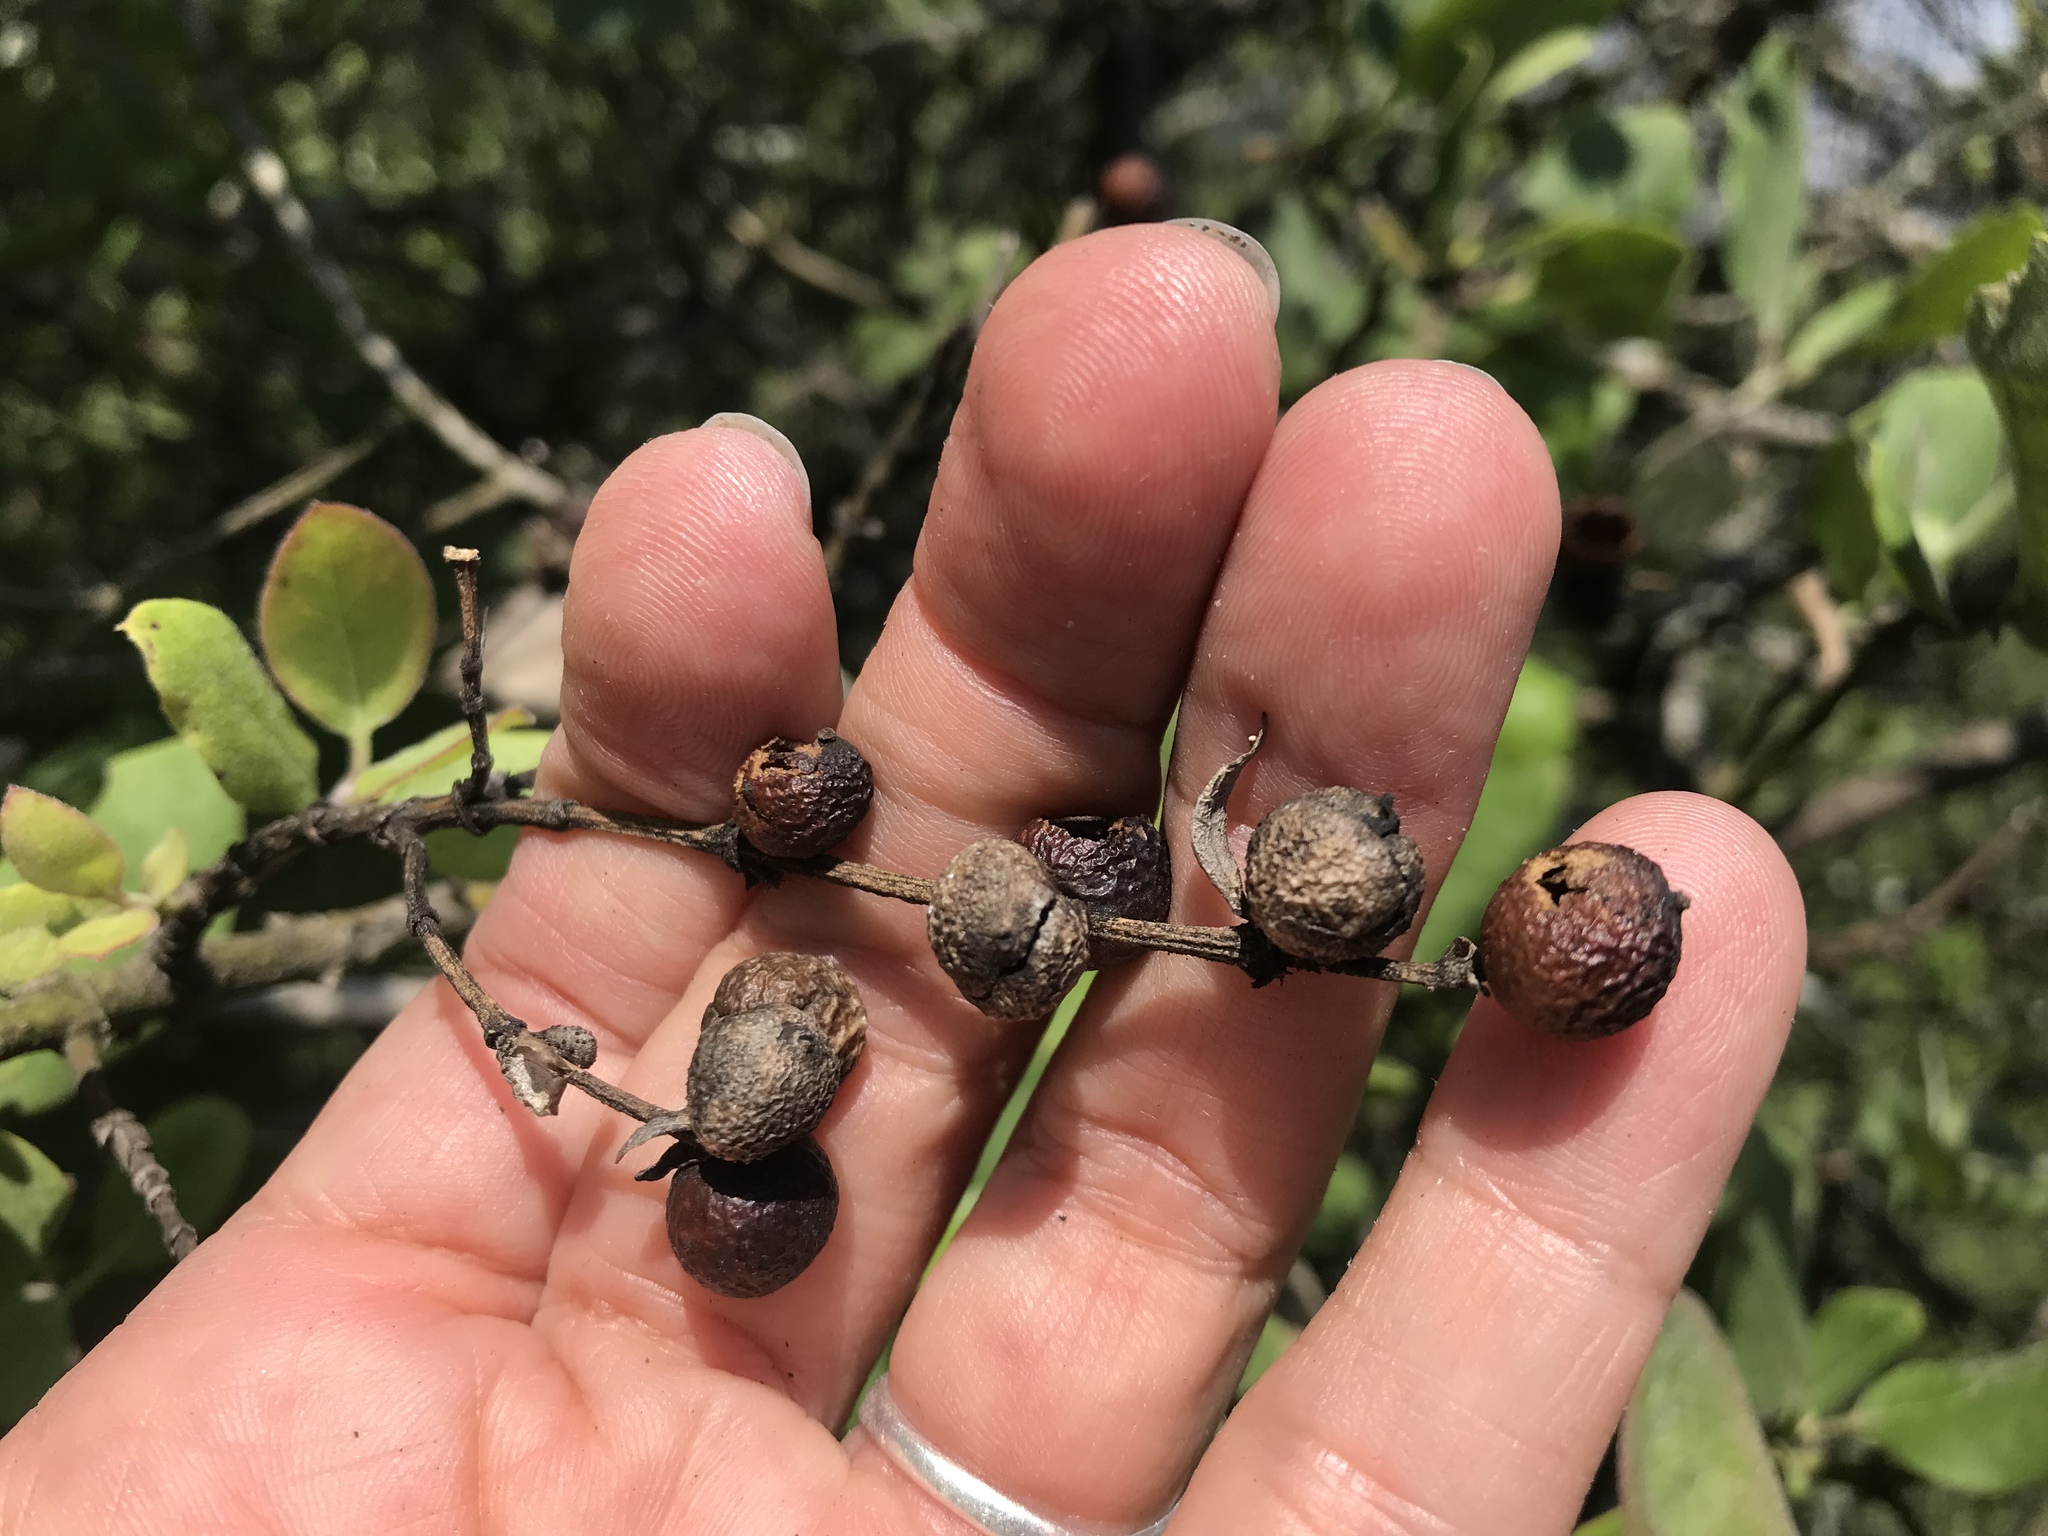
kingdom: Plantae
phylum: Tracheophyta
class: Magnoliopsida
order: Garryales
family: Garryaceae
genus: Garrya
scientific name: Garrya ovata
